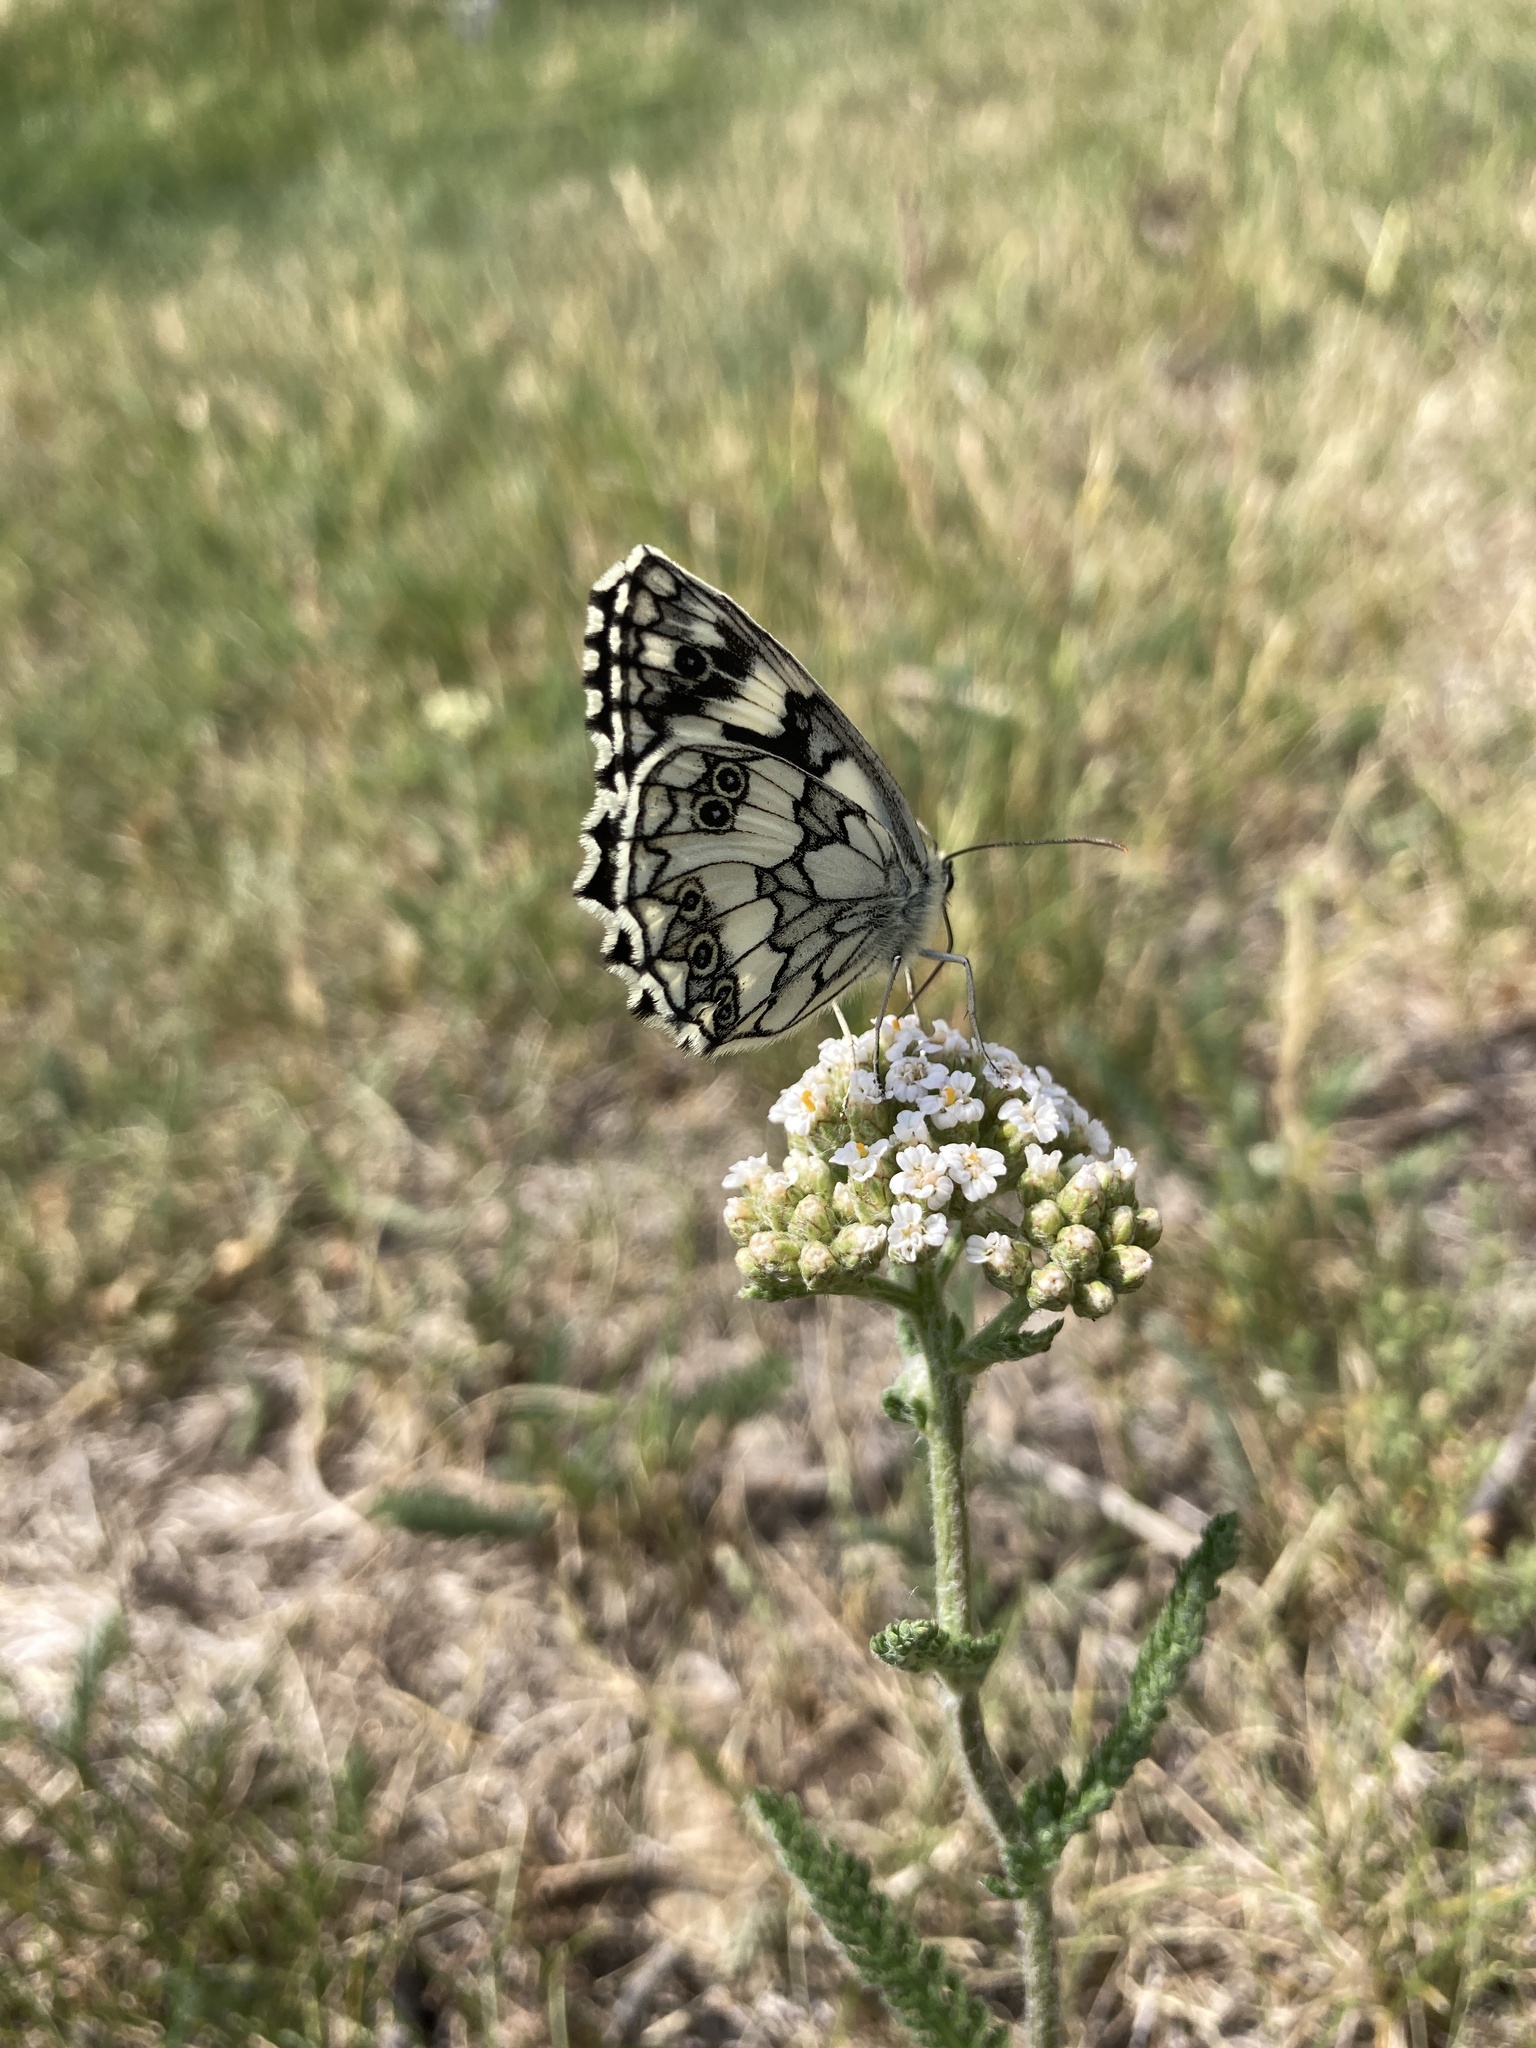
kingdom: Animalia
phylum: Arthropoda
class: Insecta
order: Lepidoptera
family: Nymphalidae
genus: Melanargia
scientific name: Melanargia galathea
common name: Marbled white
